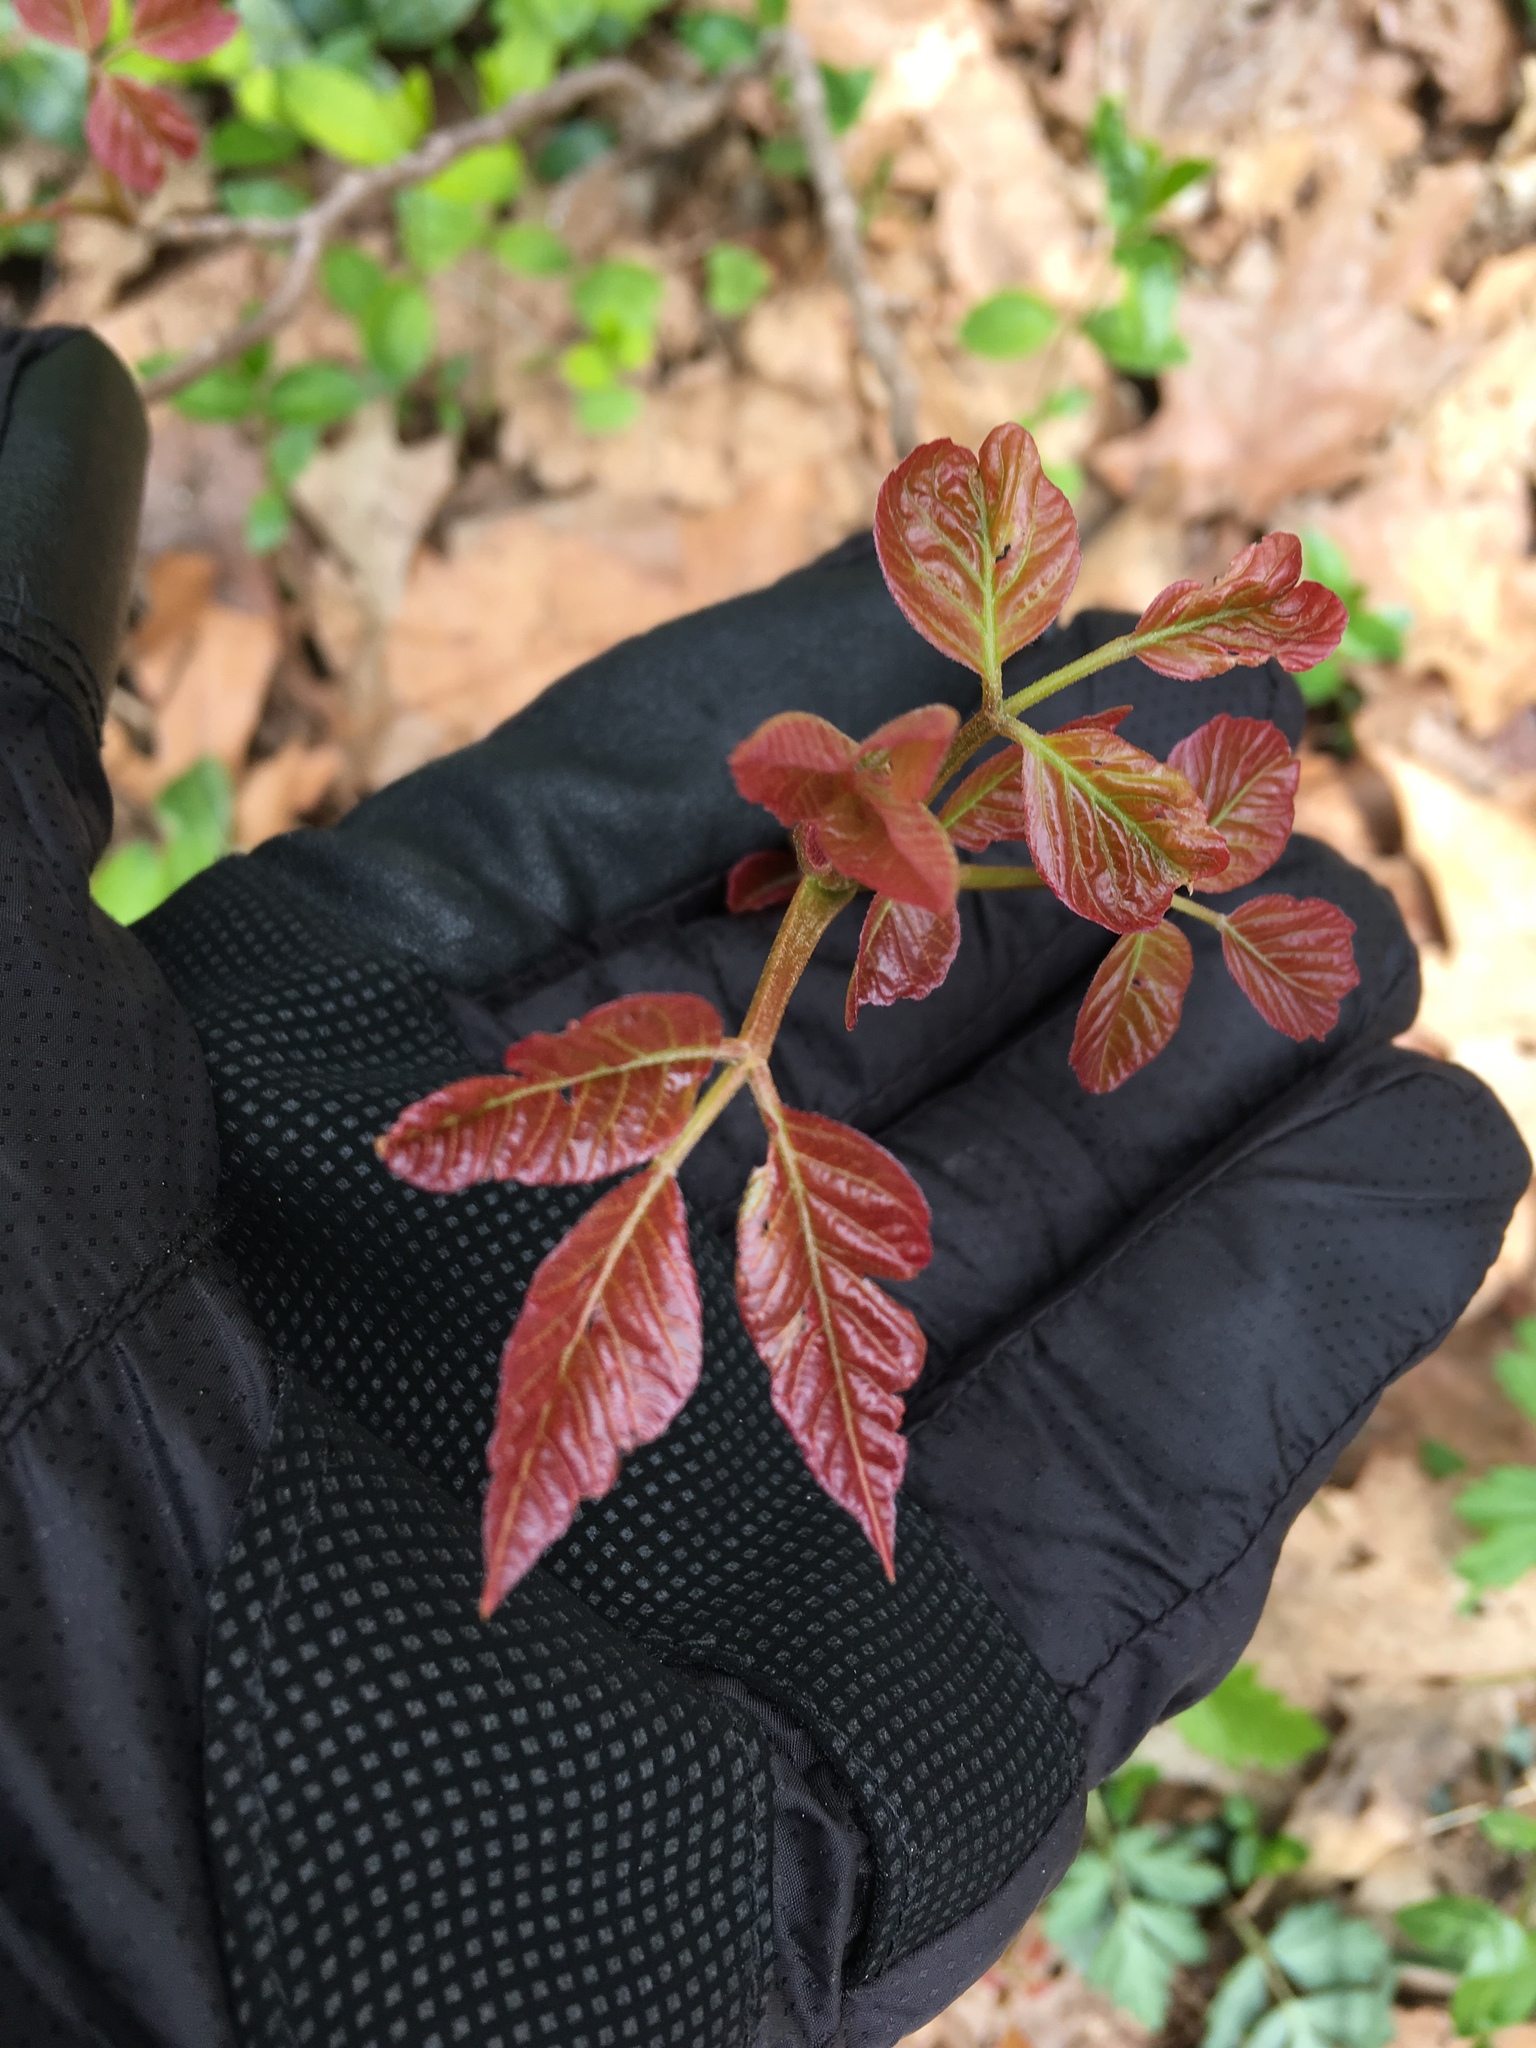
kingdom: Plantae
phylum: Tracheophyta
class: Magnoliopsida
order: Sapindales
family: Anacardiaceae
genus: Toxicodendron
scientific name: Toxicodendron radicans
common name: Poison ivy
